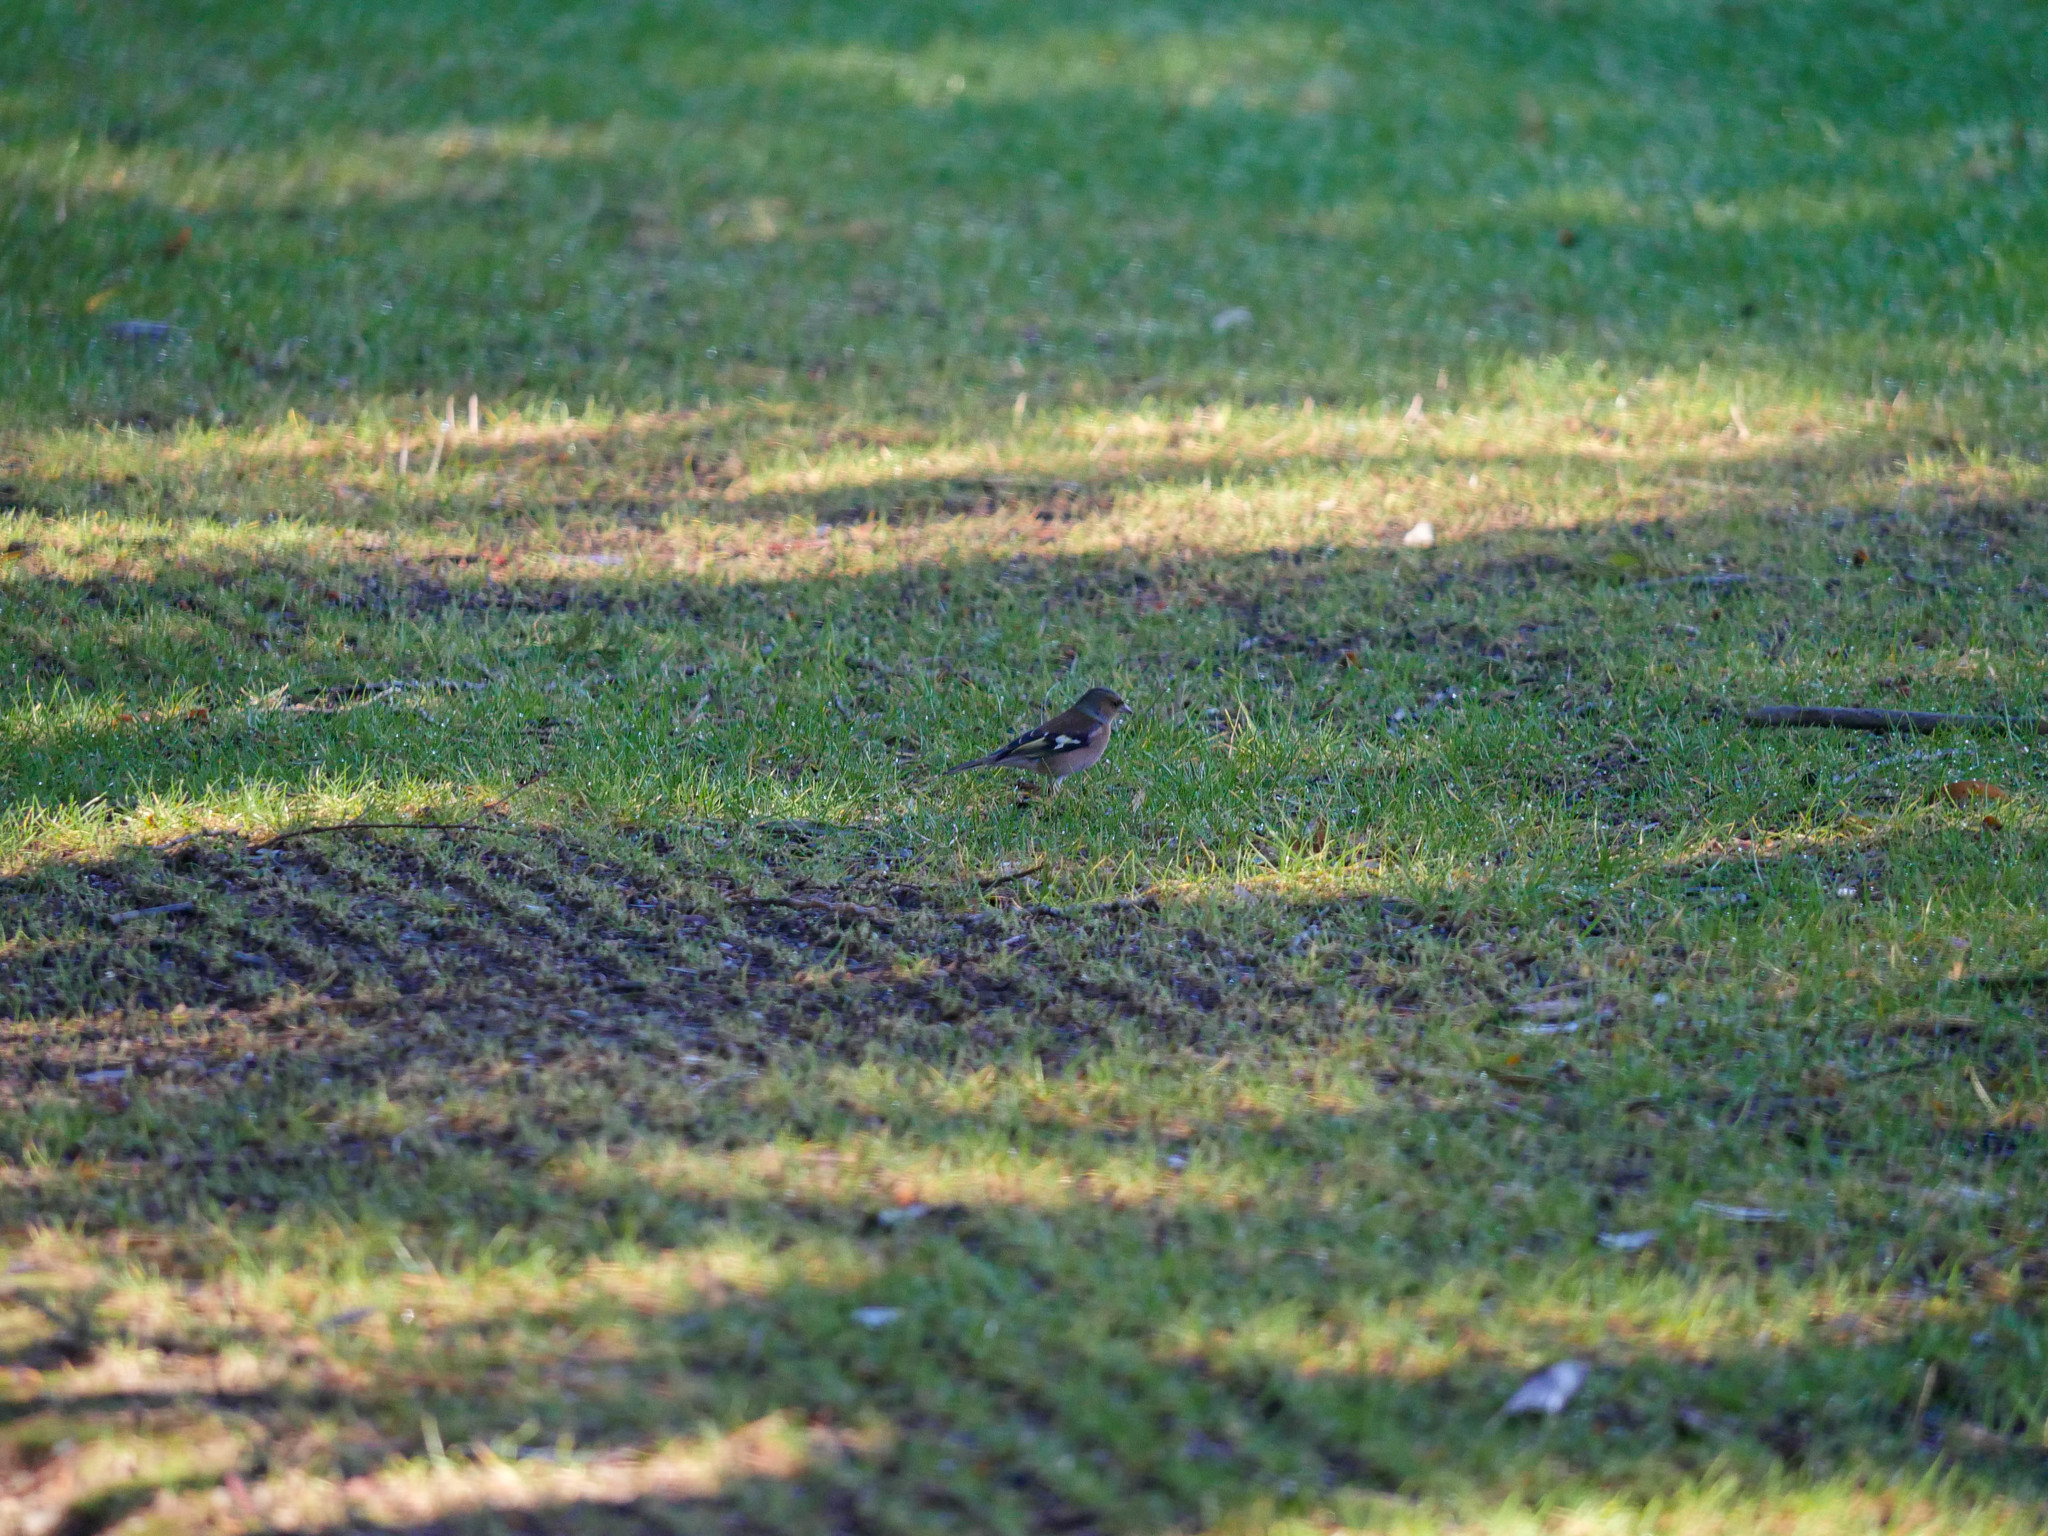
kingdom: Animalia
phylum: Chordata
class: Aves
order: Passeriformes
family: Fringillidae
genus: Fringilla
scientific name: Fringilla coelebs
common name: Common chaffinch
